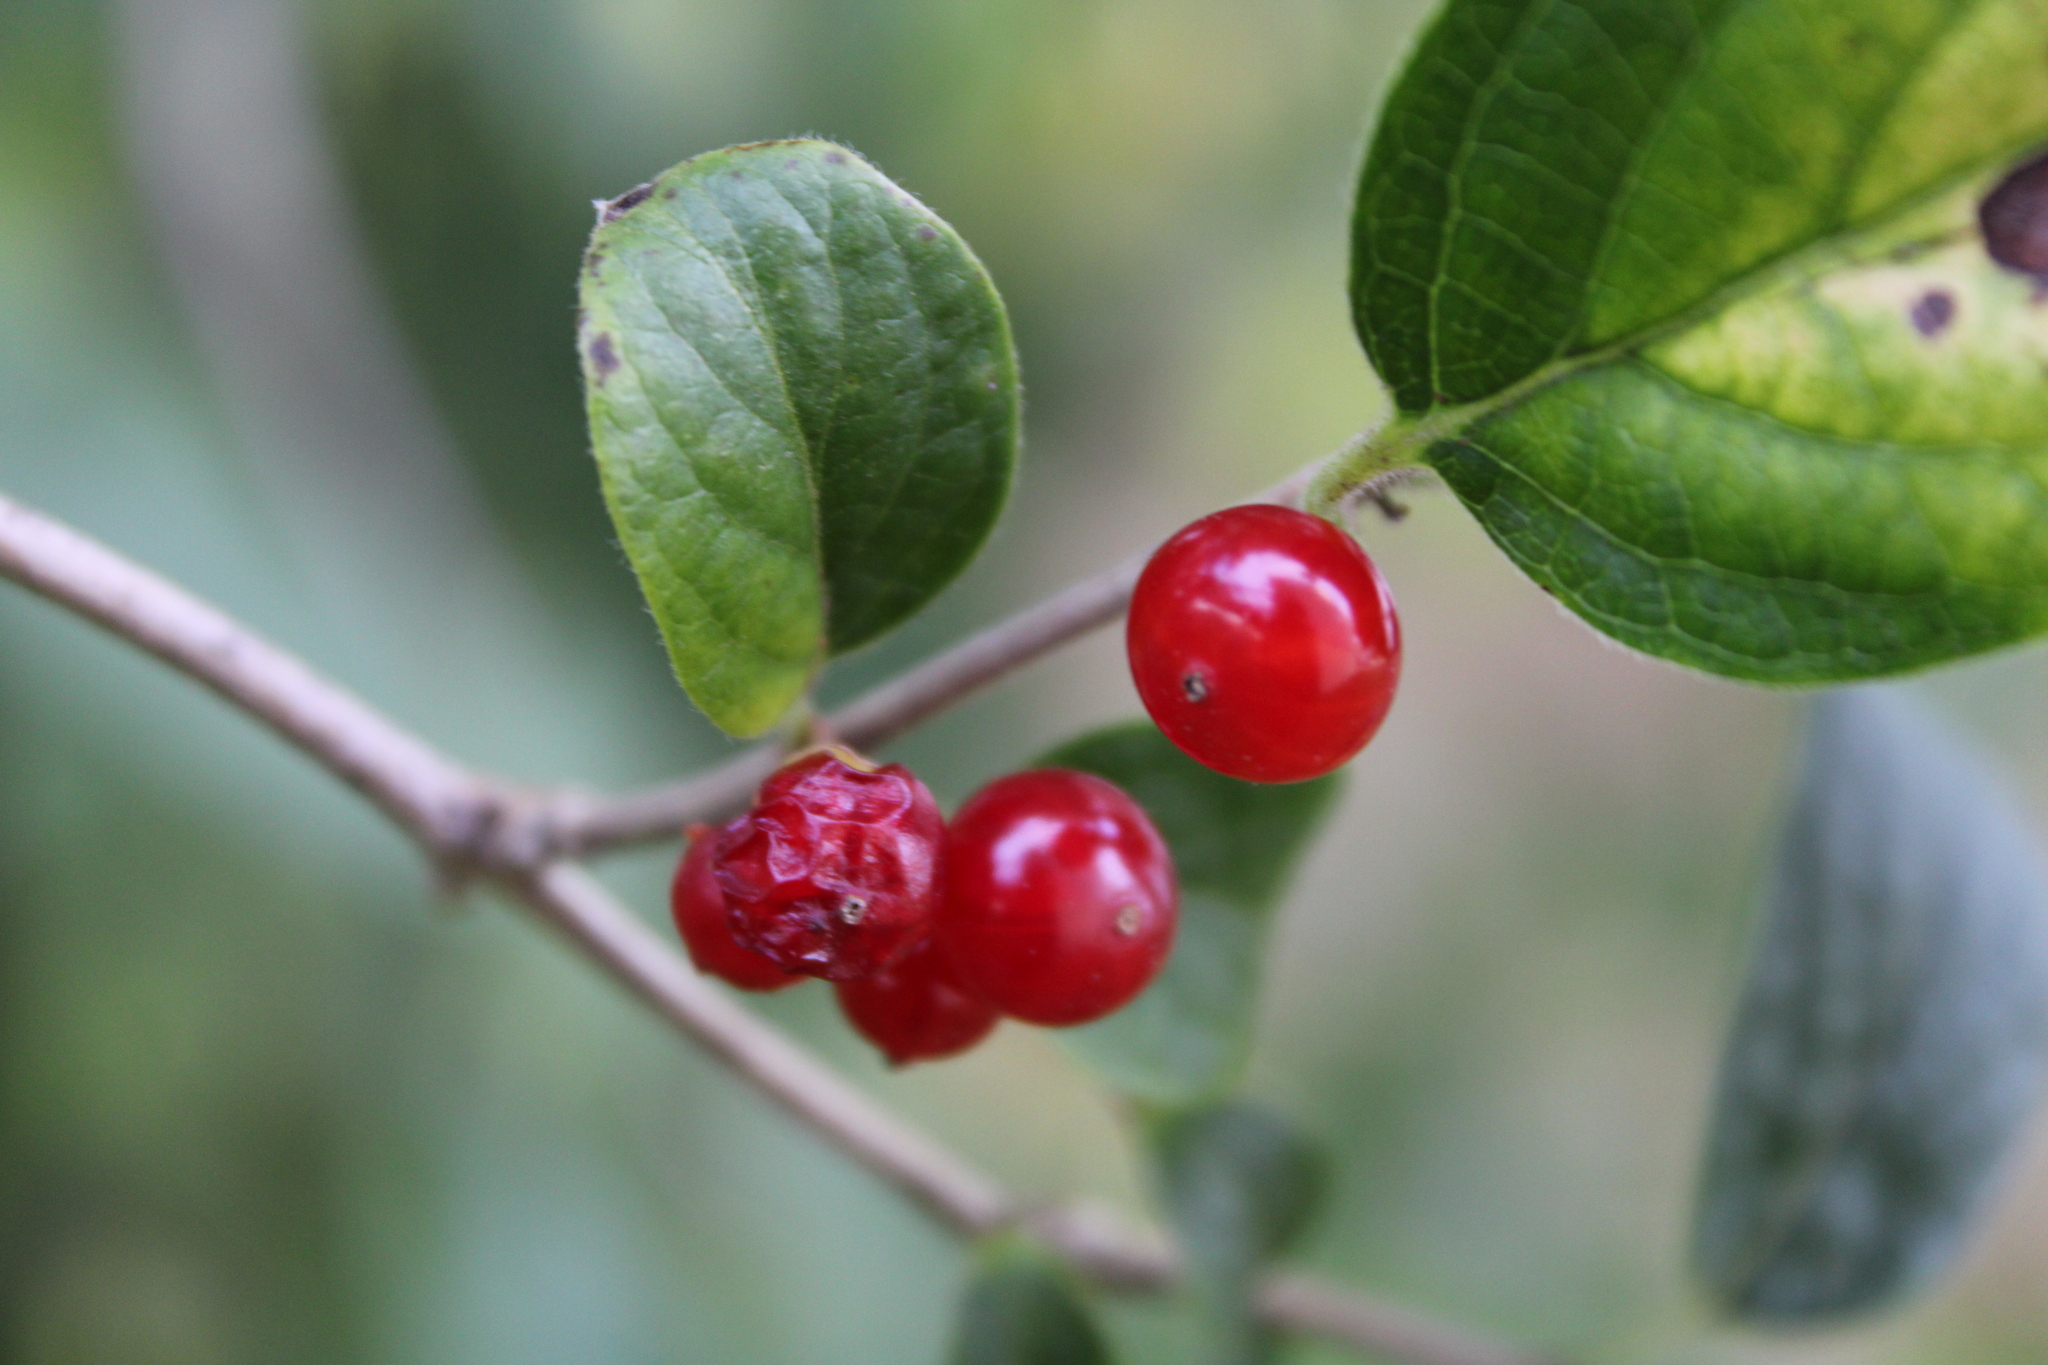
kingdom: Plantae
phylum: Tracheophyta
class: Magnoliopsida
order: Dipsacales
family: Caprifoliaceae
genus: Lonicera
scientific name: Lonicera maackii
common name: Amur honeysuckle
